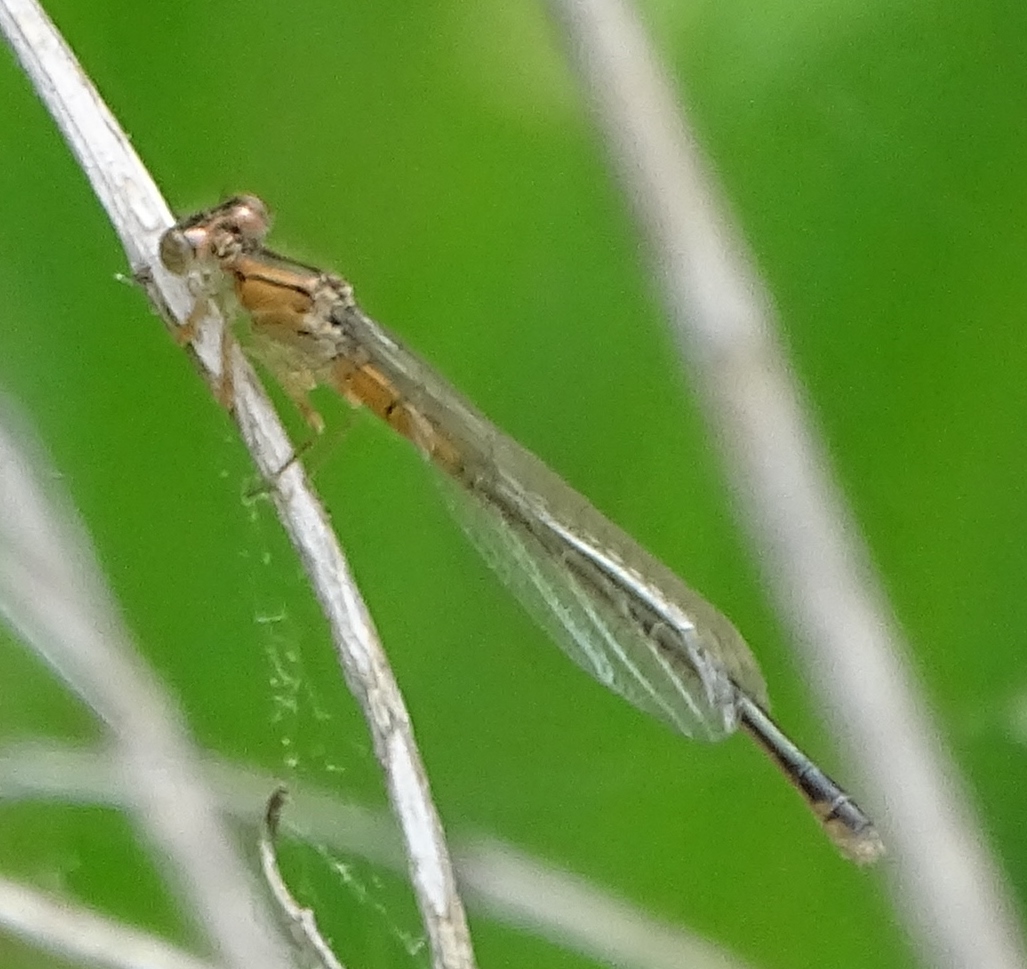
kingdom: Animalia
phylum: Arthropoda
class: Insecta
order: Odonata
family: Coenagrionidae
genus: Ischnura
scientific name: Ischnura verticalis
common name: Eastern forktail
